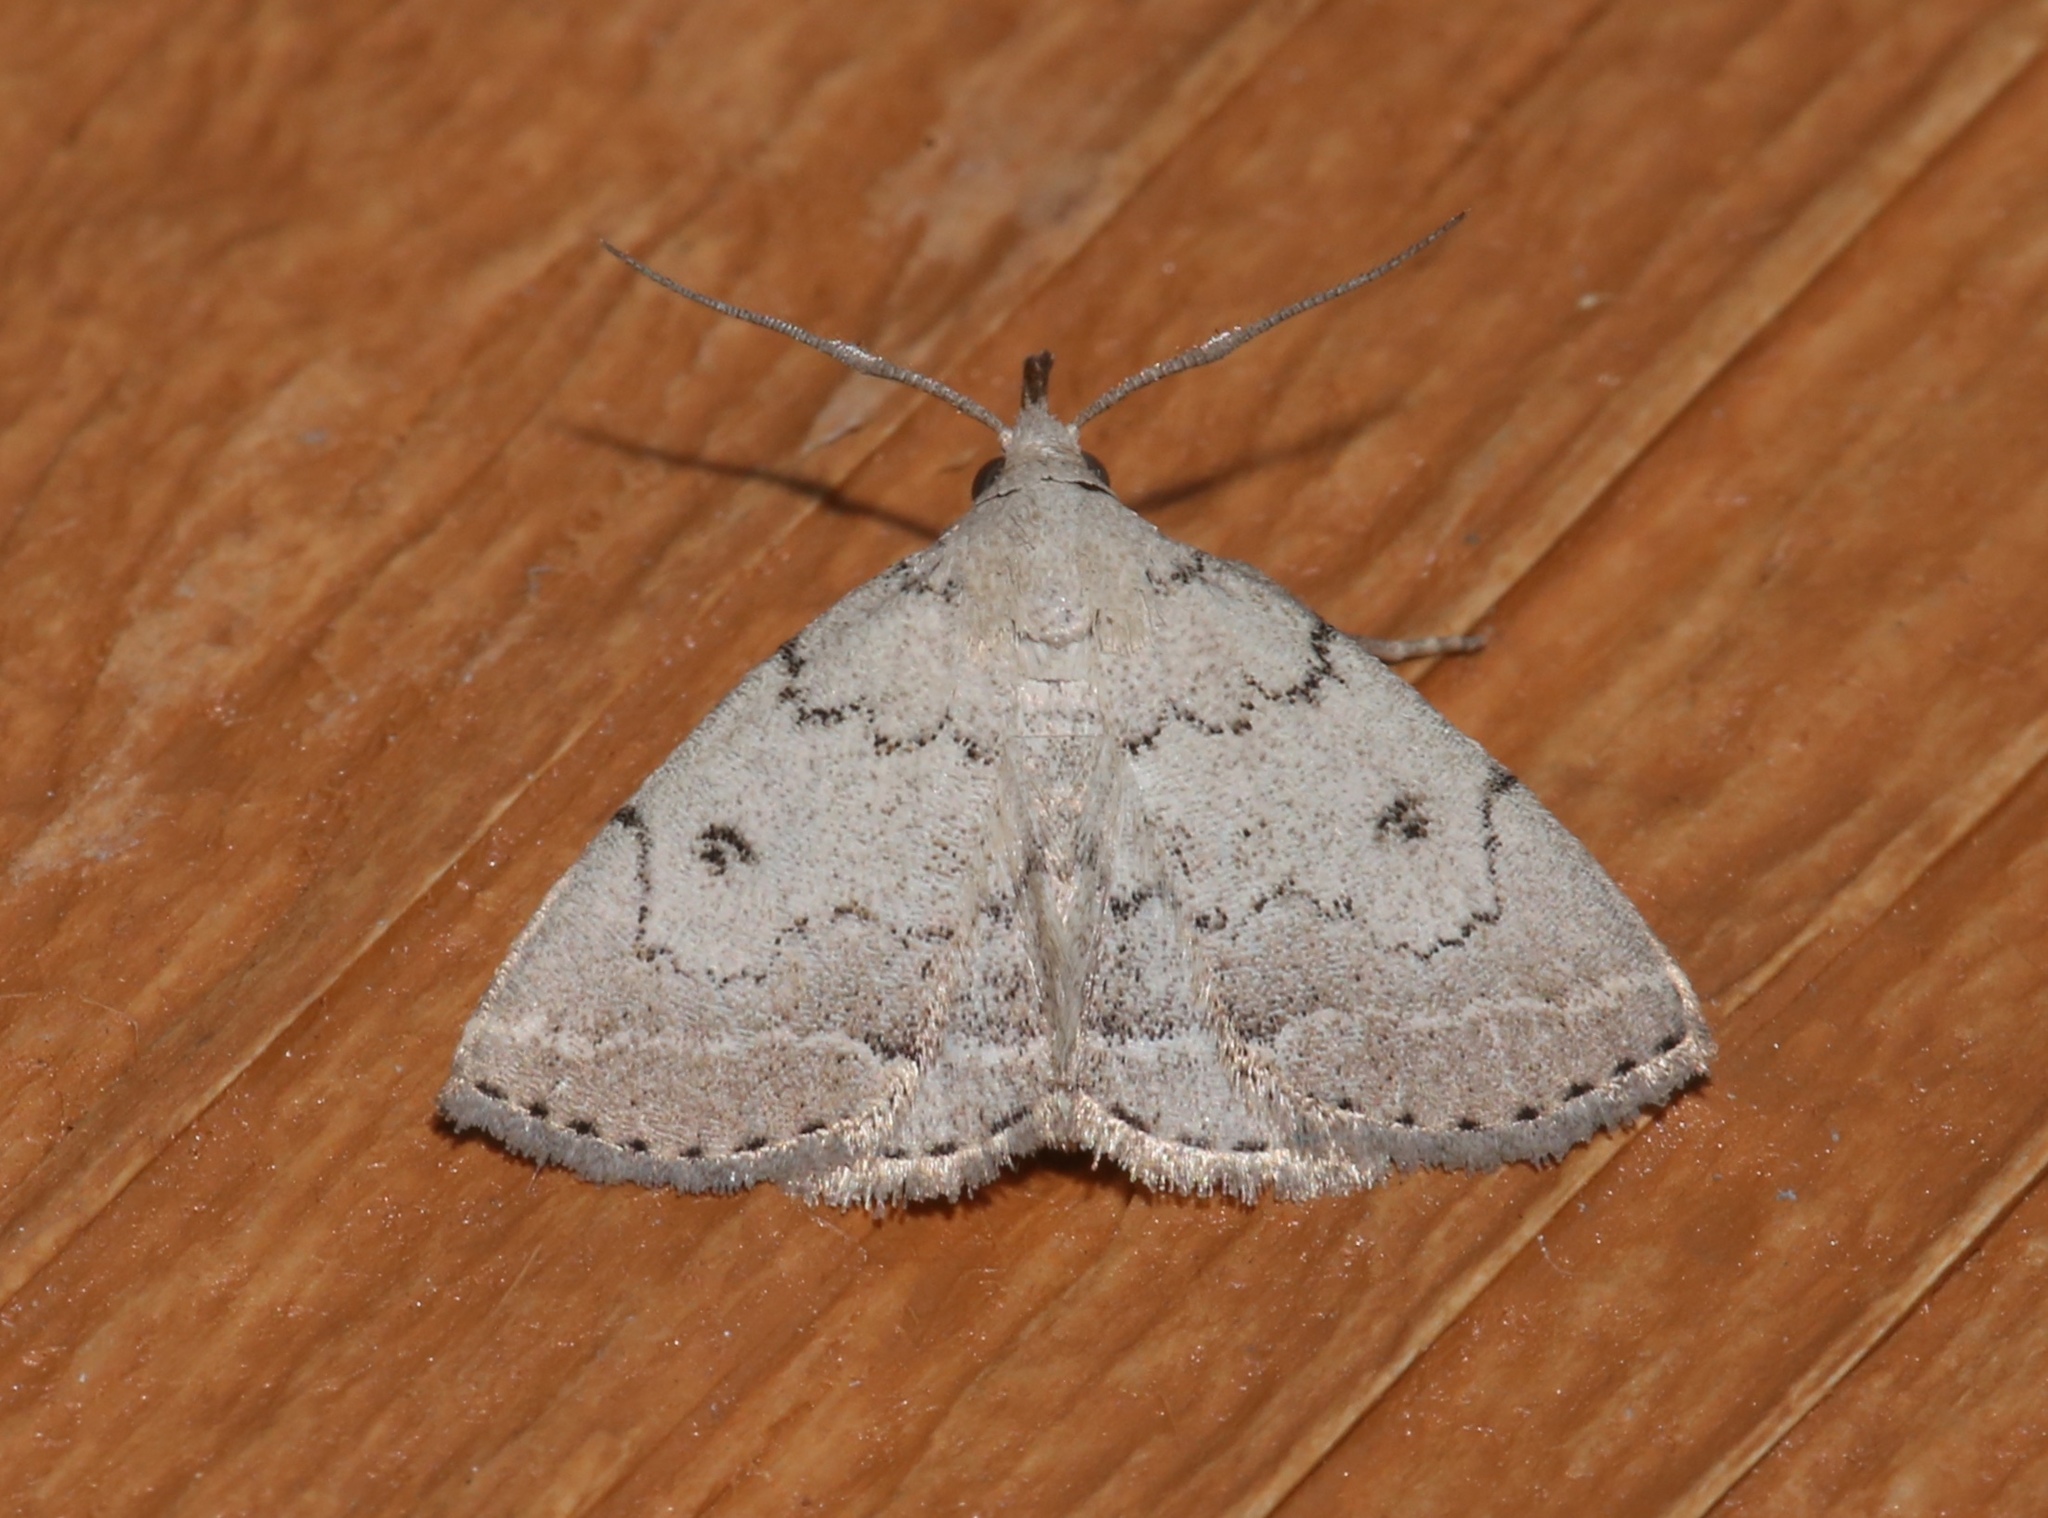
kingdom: Animalia
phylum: Arthropoda
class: Insecta
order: Lepidoptera
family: Erebidae
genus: Zanclognatha
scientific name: Zanclognatha theralis
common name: Flagged fan-foot
